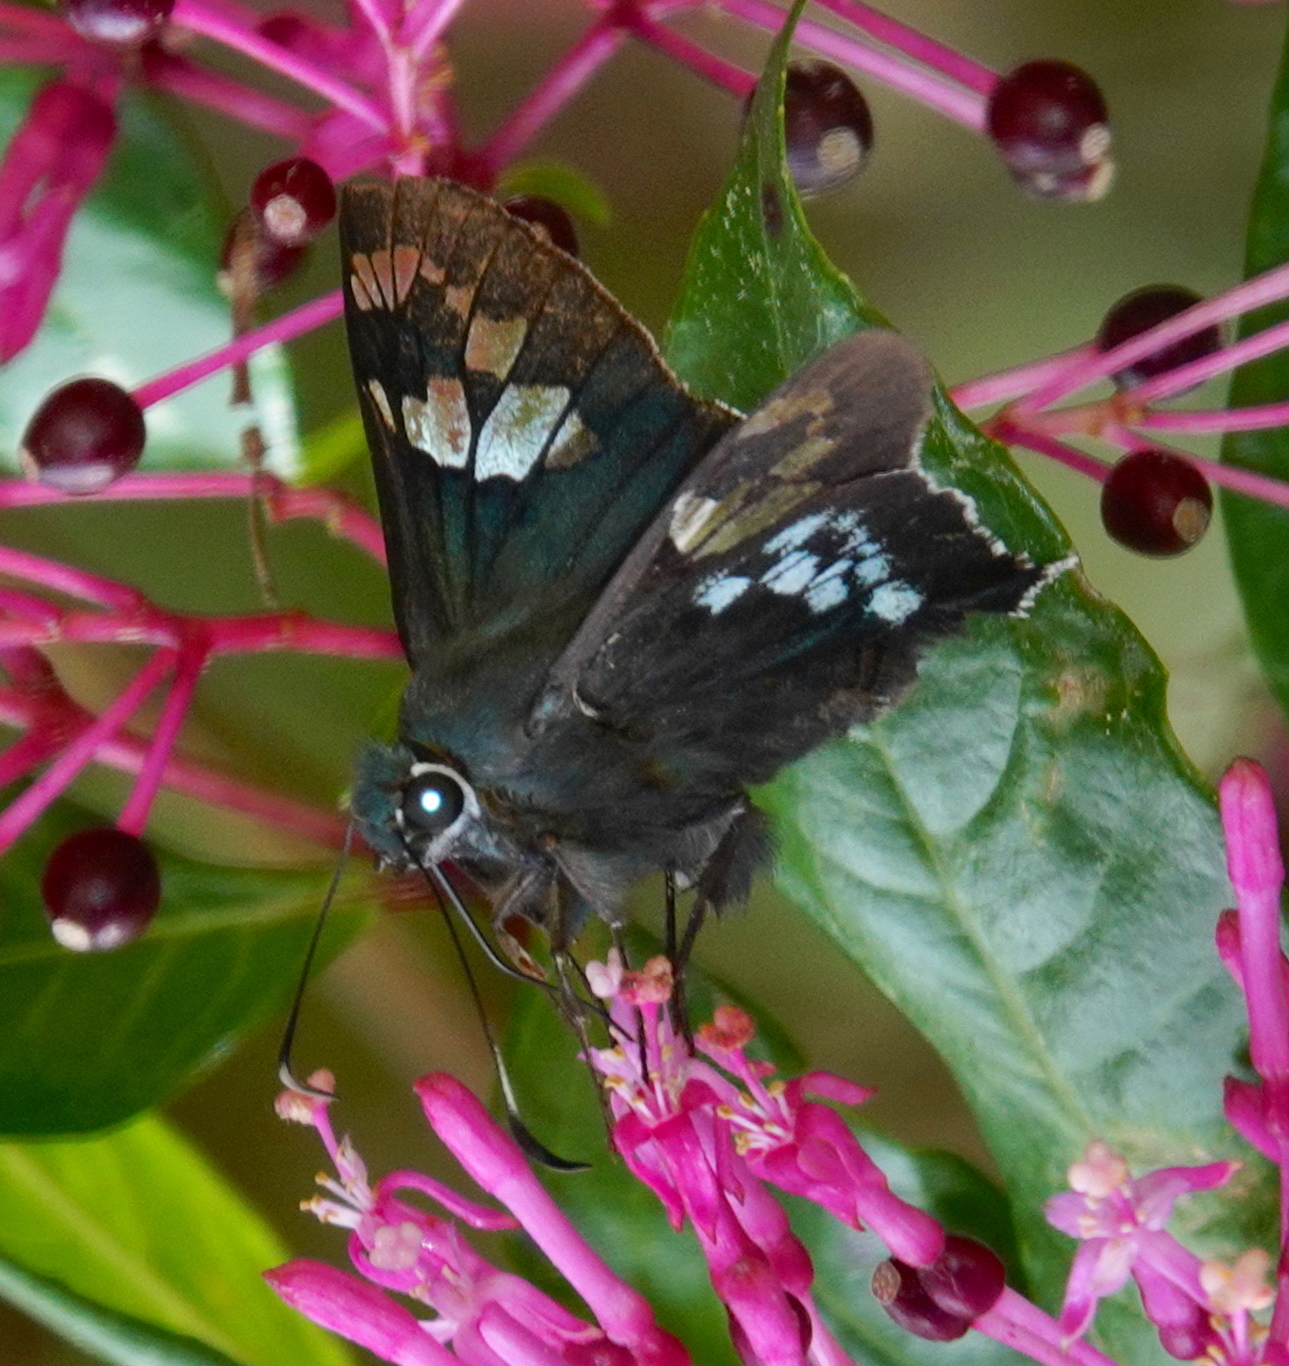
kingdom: Animalia
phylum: Arthropoda
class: Insecta
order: Lepidoptera
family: Hesperiidae
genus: Ridens
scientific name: Ridens crison
